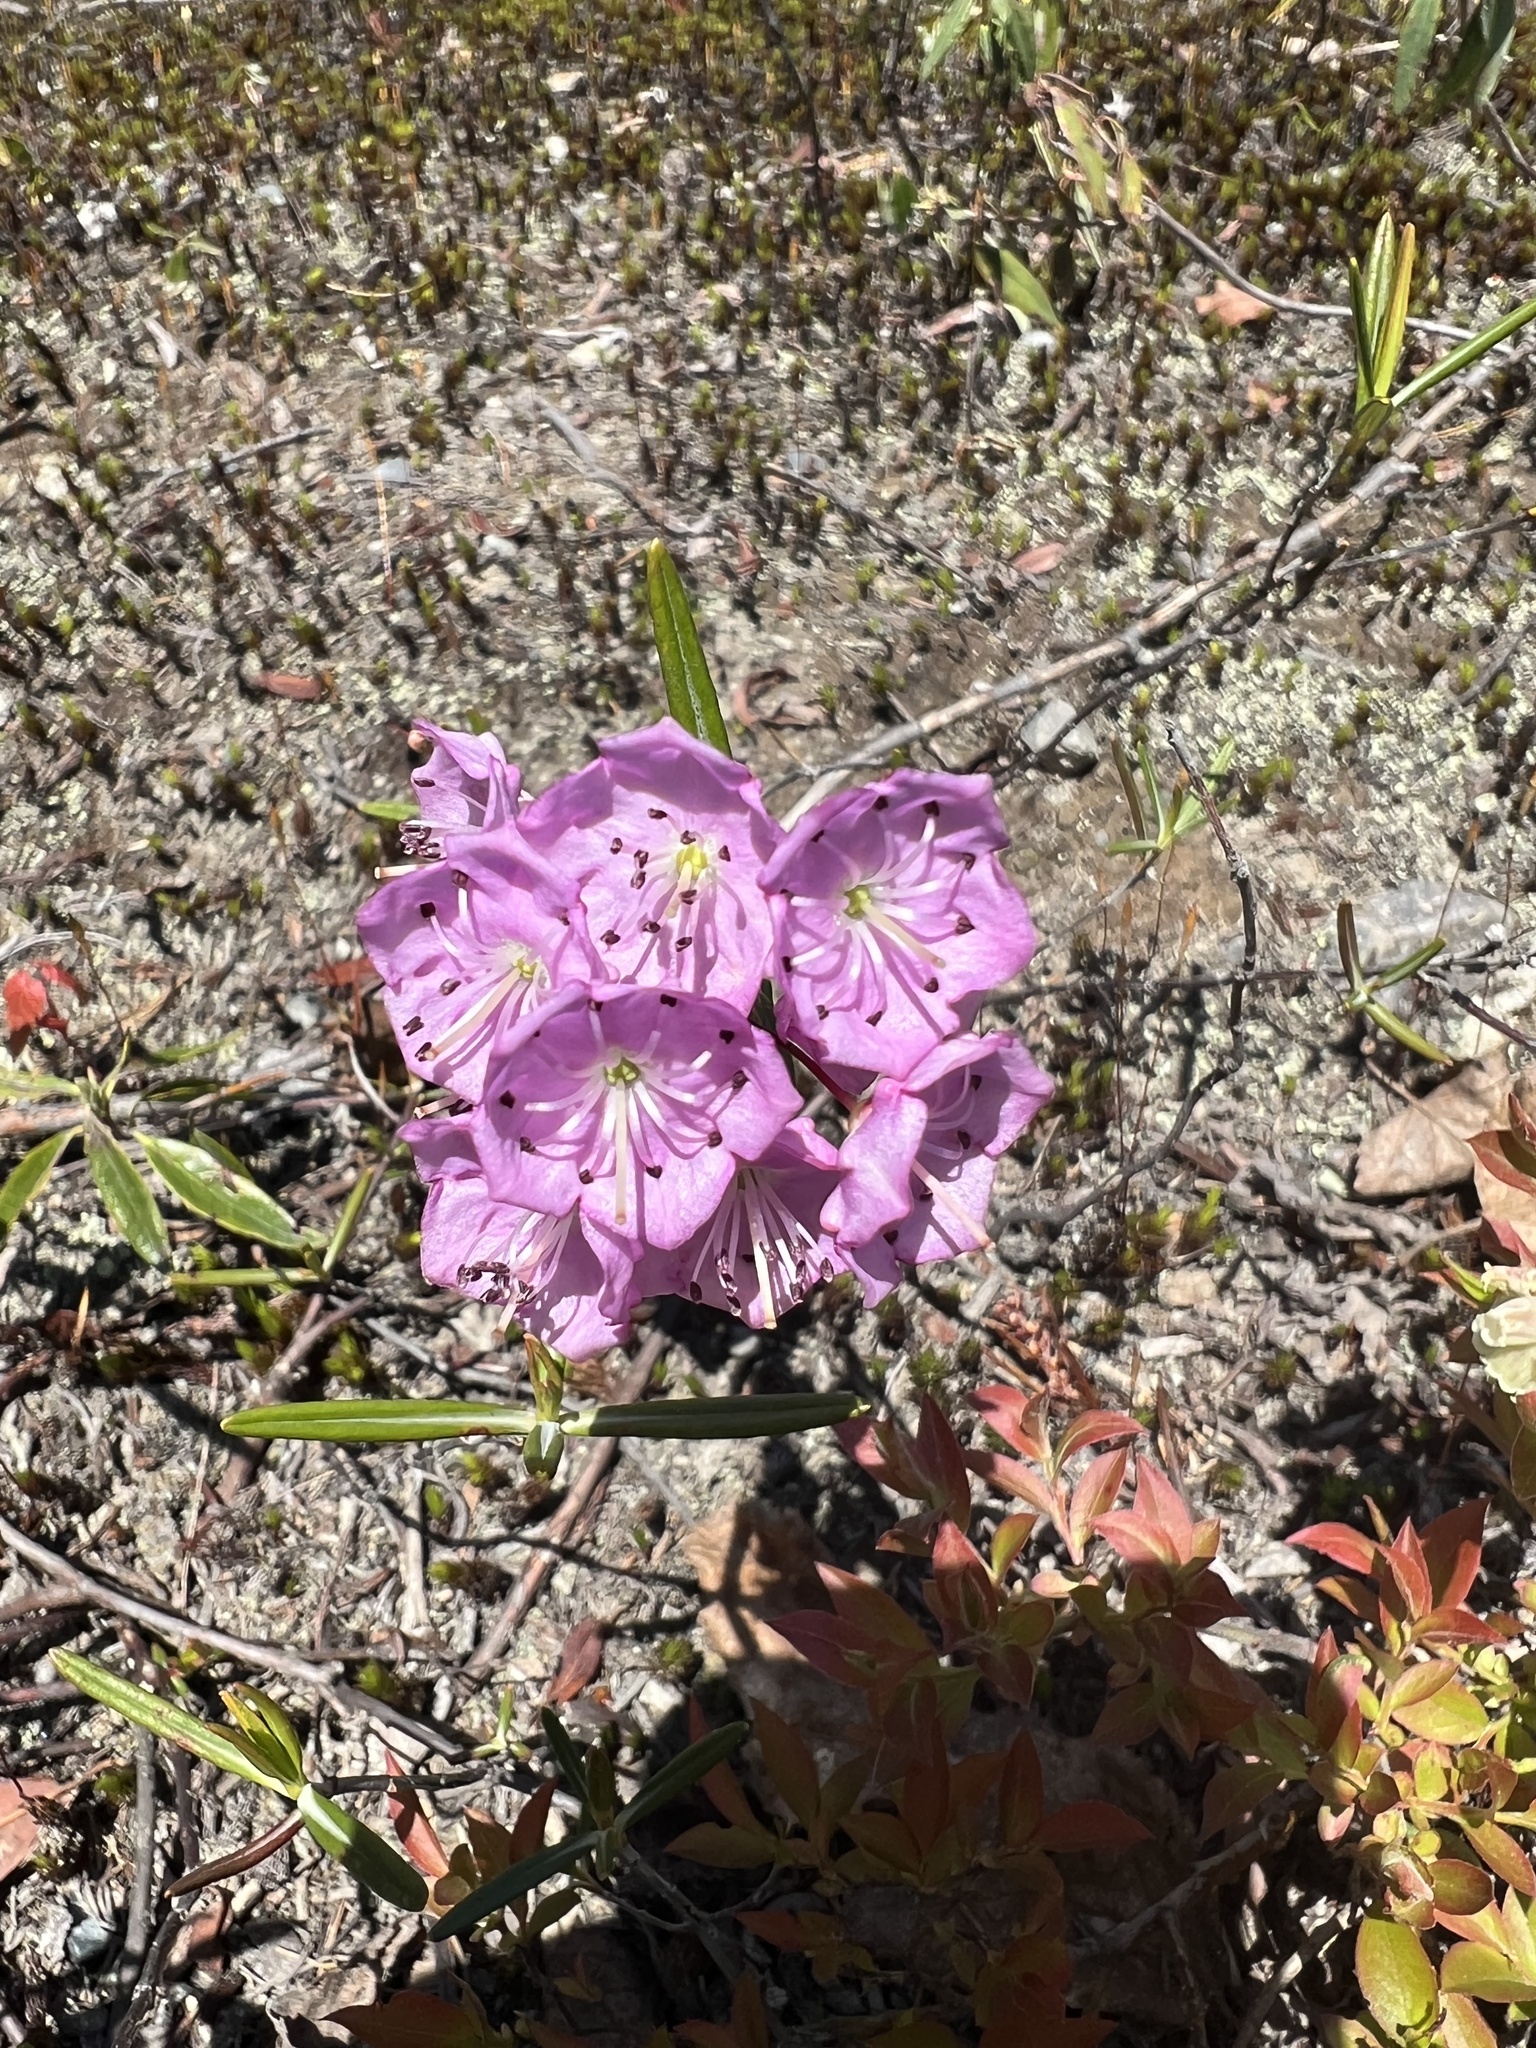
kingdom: Plantae
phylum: Tracheophyta
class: Magnoliopsida
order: Ericales
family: Ericaceae
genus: Kalmia
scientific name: Kalmia polifolia
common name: Bog-laurel
